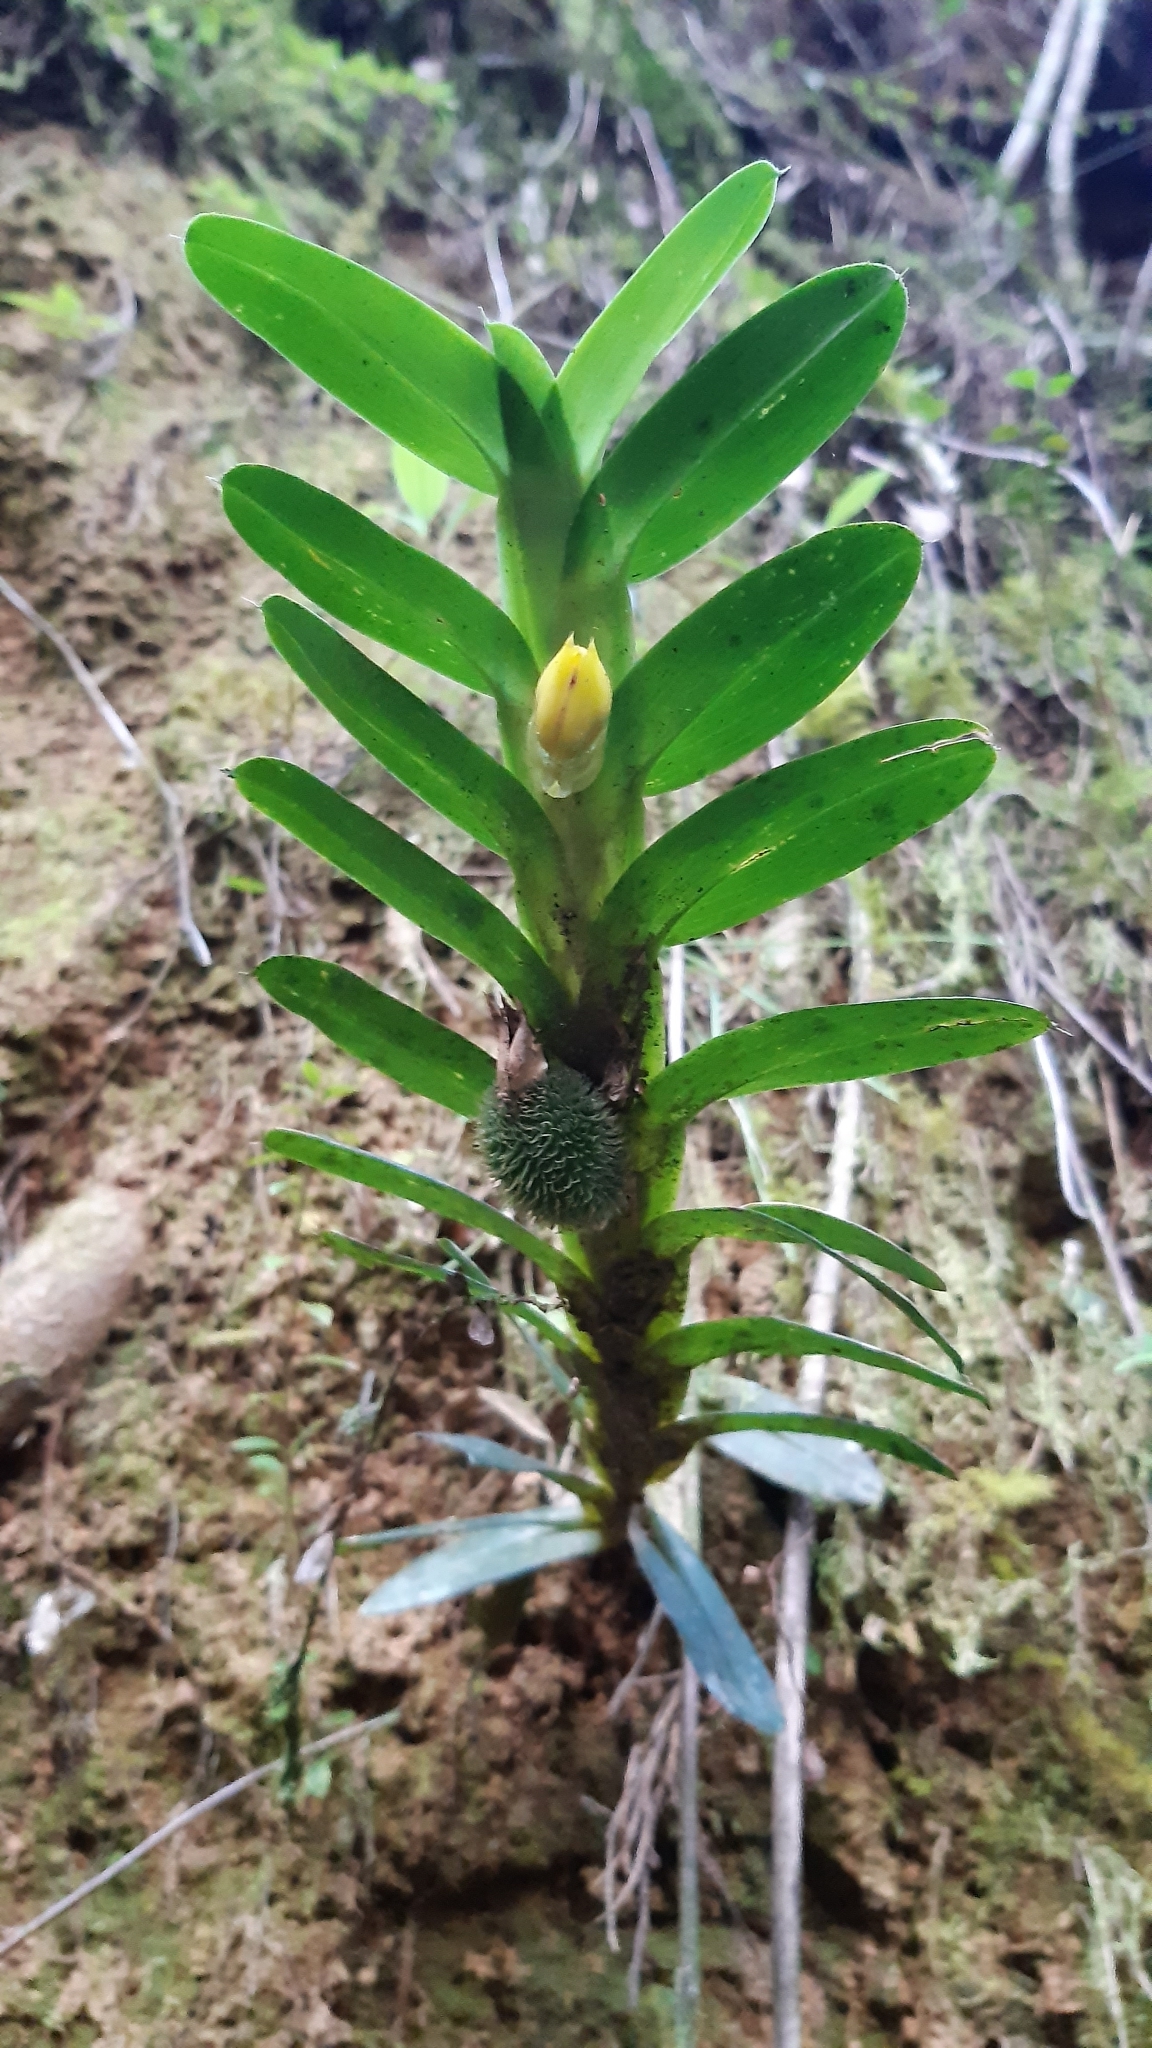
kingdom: Plantae
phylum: Tracheophyta
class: Liliopsida
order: Asparagales
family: Orchidaceae
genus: Dichaea
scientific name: Dichaea morrisii
